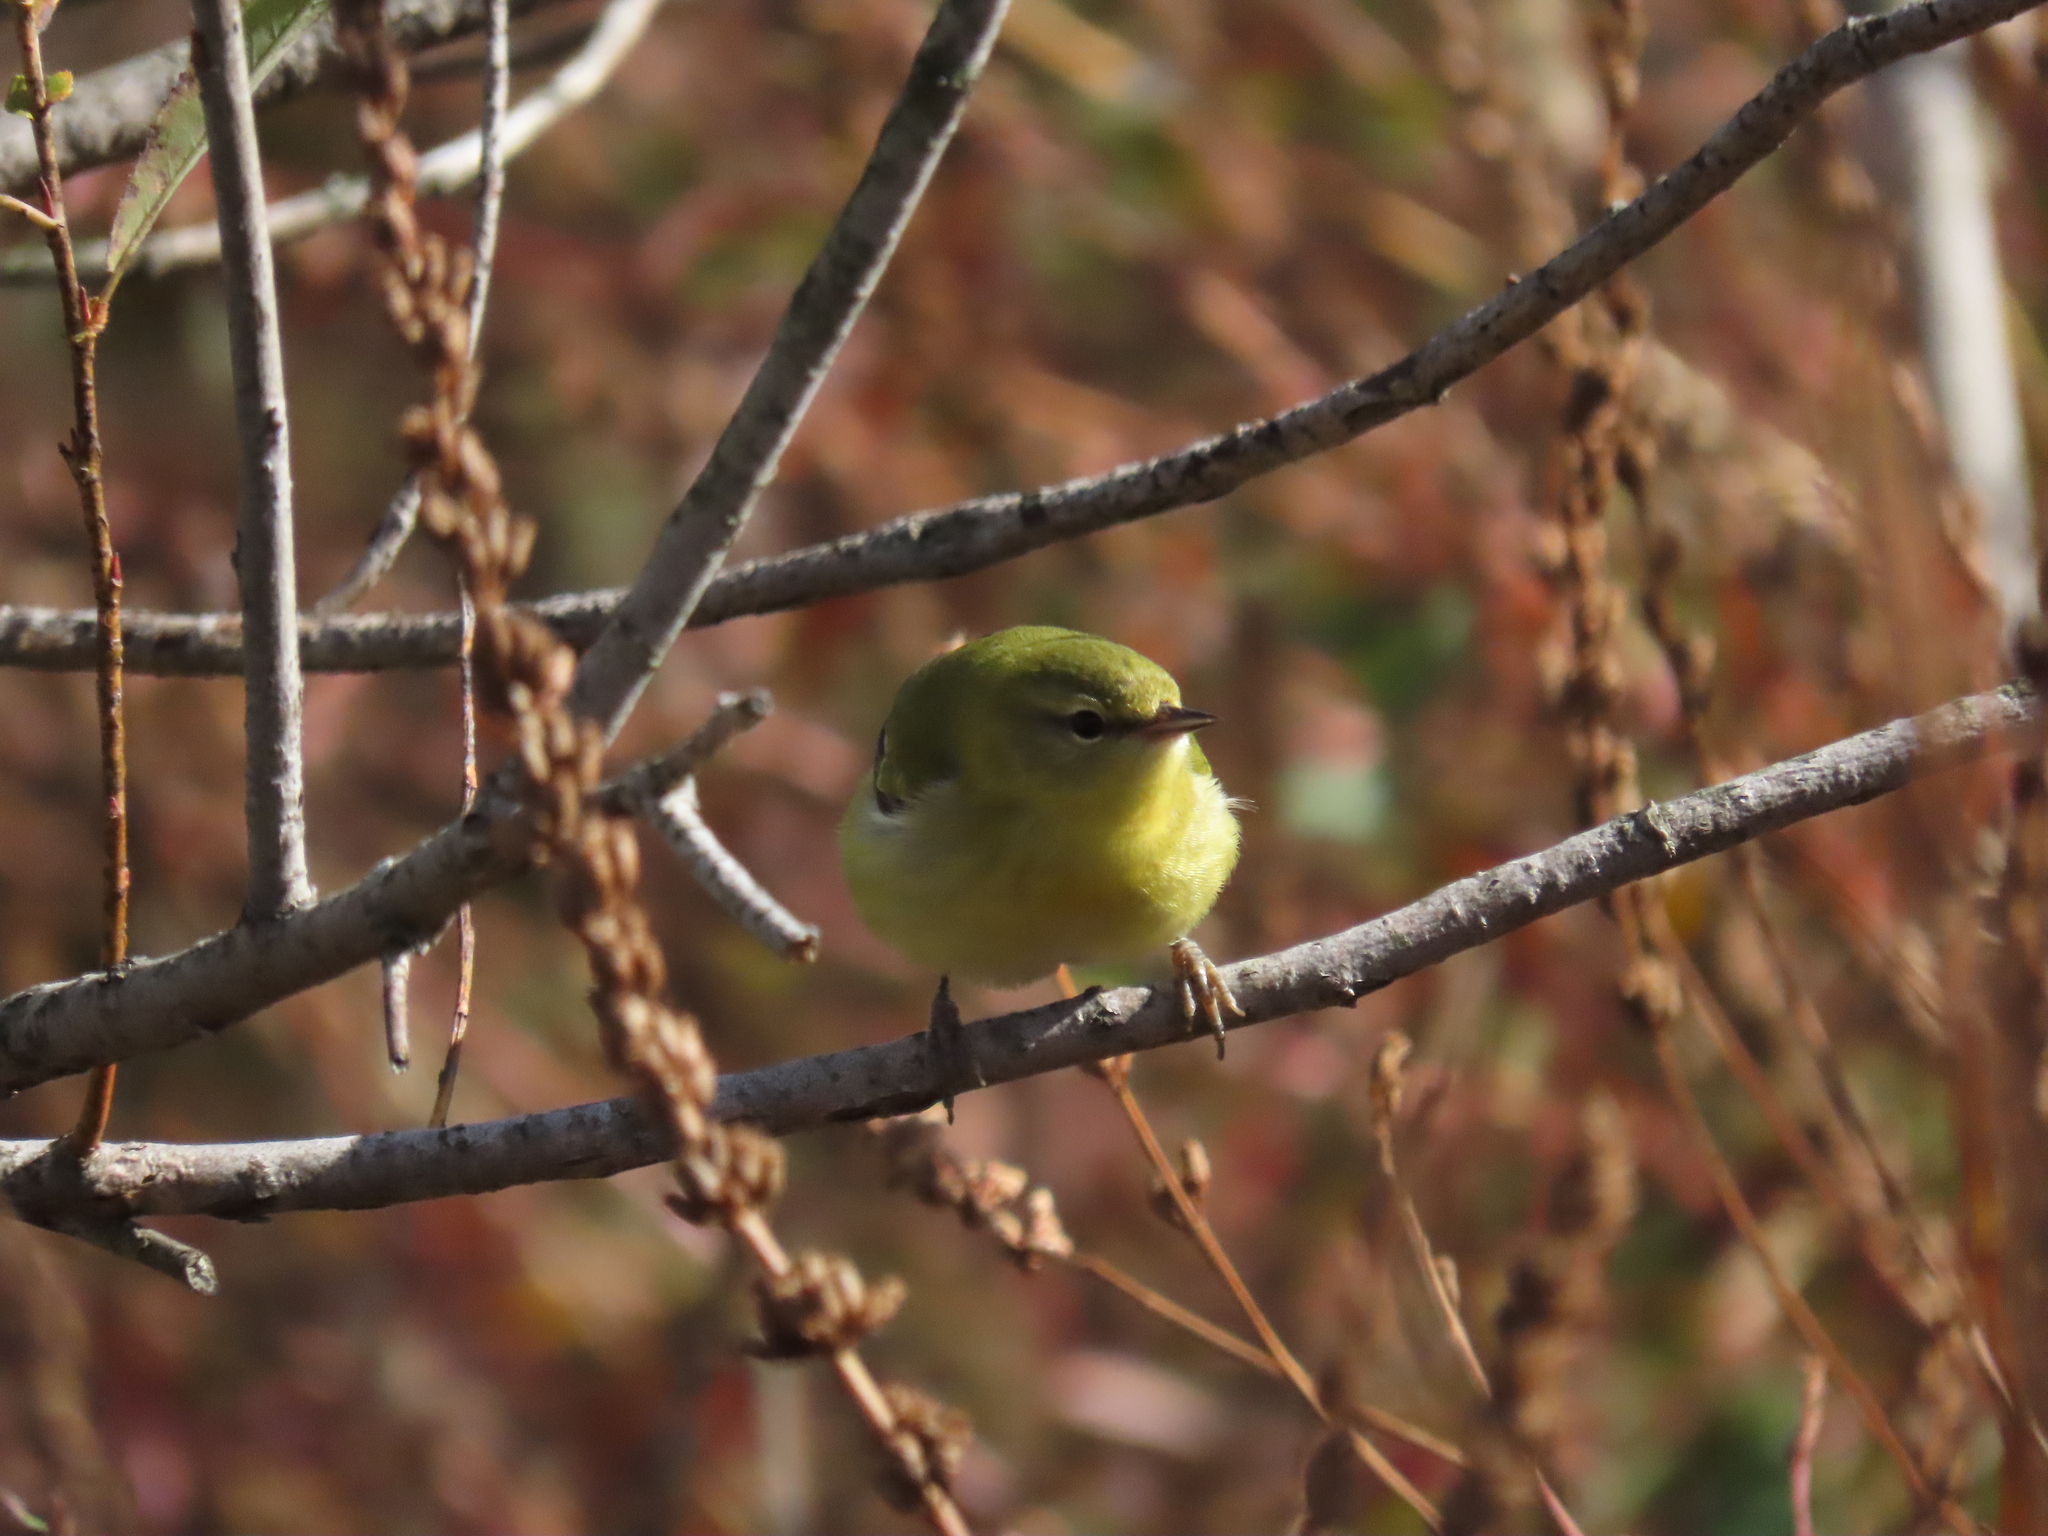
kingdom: Animalia
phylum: Chordata
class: Aves
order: Passeriformes
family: Parulidae
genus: Leiothlypis
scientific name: Leiothlypis peregrina
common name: Tennessee warbler
